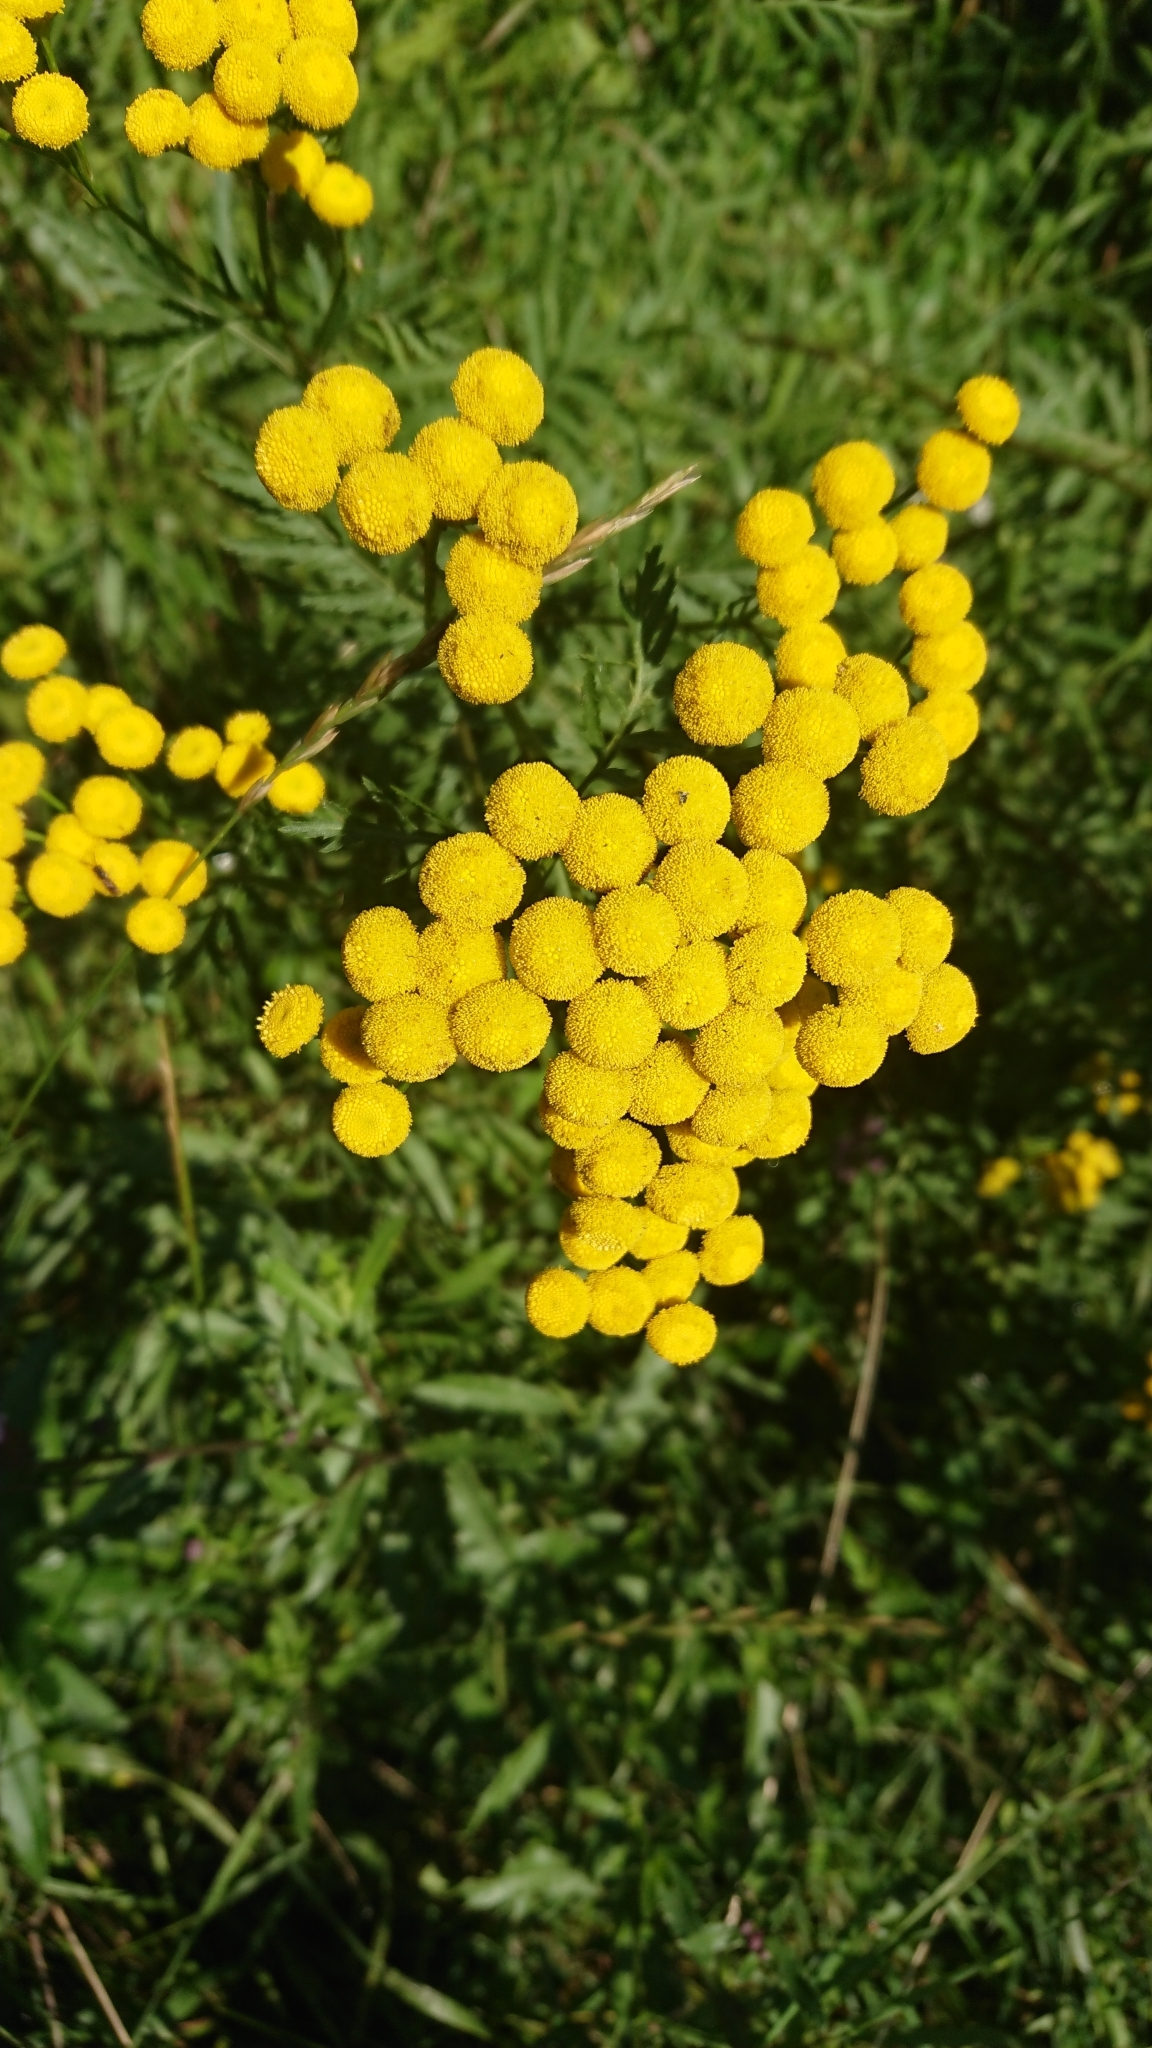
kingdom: Plantae
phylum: Tracheophyta
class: Magnoliopsida
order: Asterales
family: Asteraceae
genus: Tanacetum
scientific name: Tanacetum vulgare
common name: Common tansy
